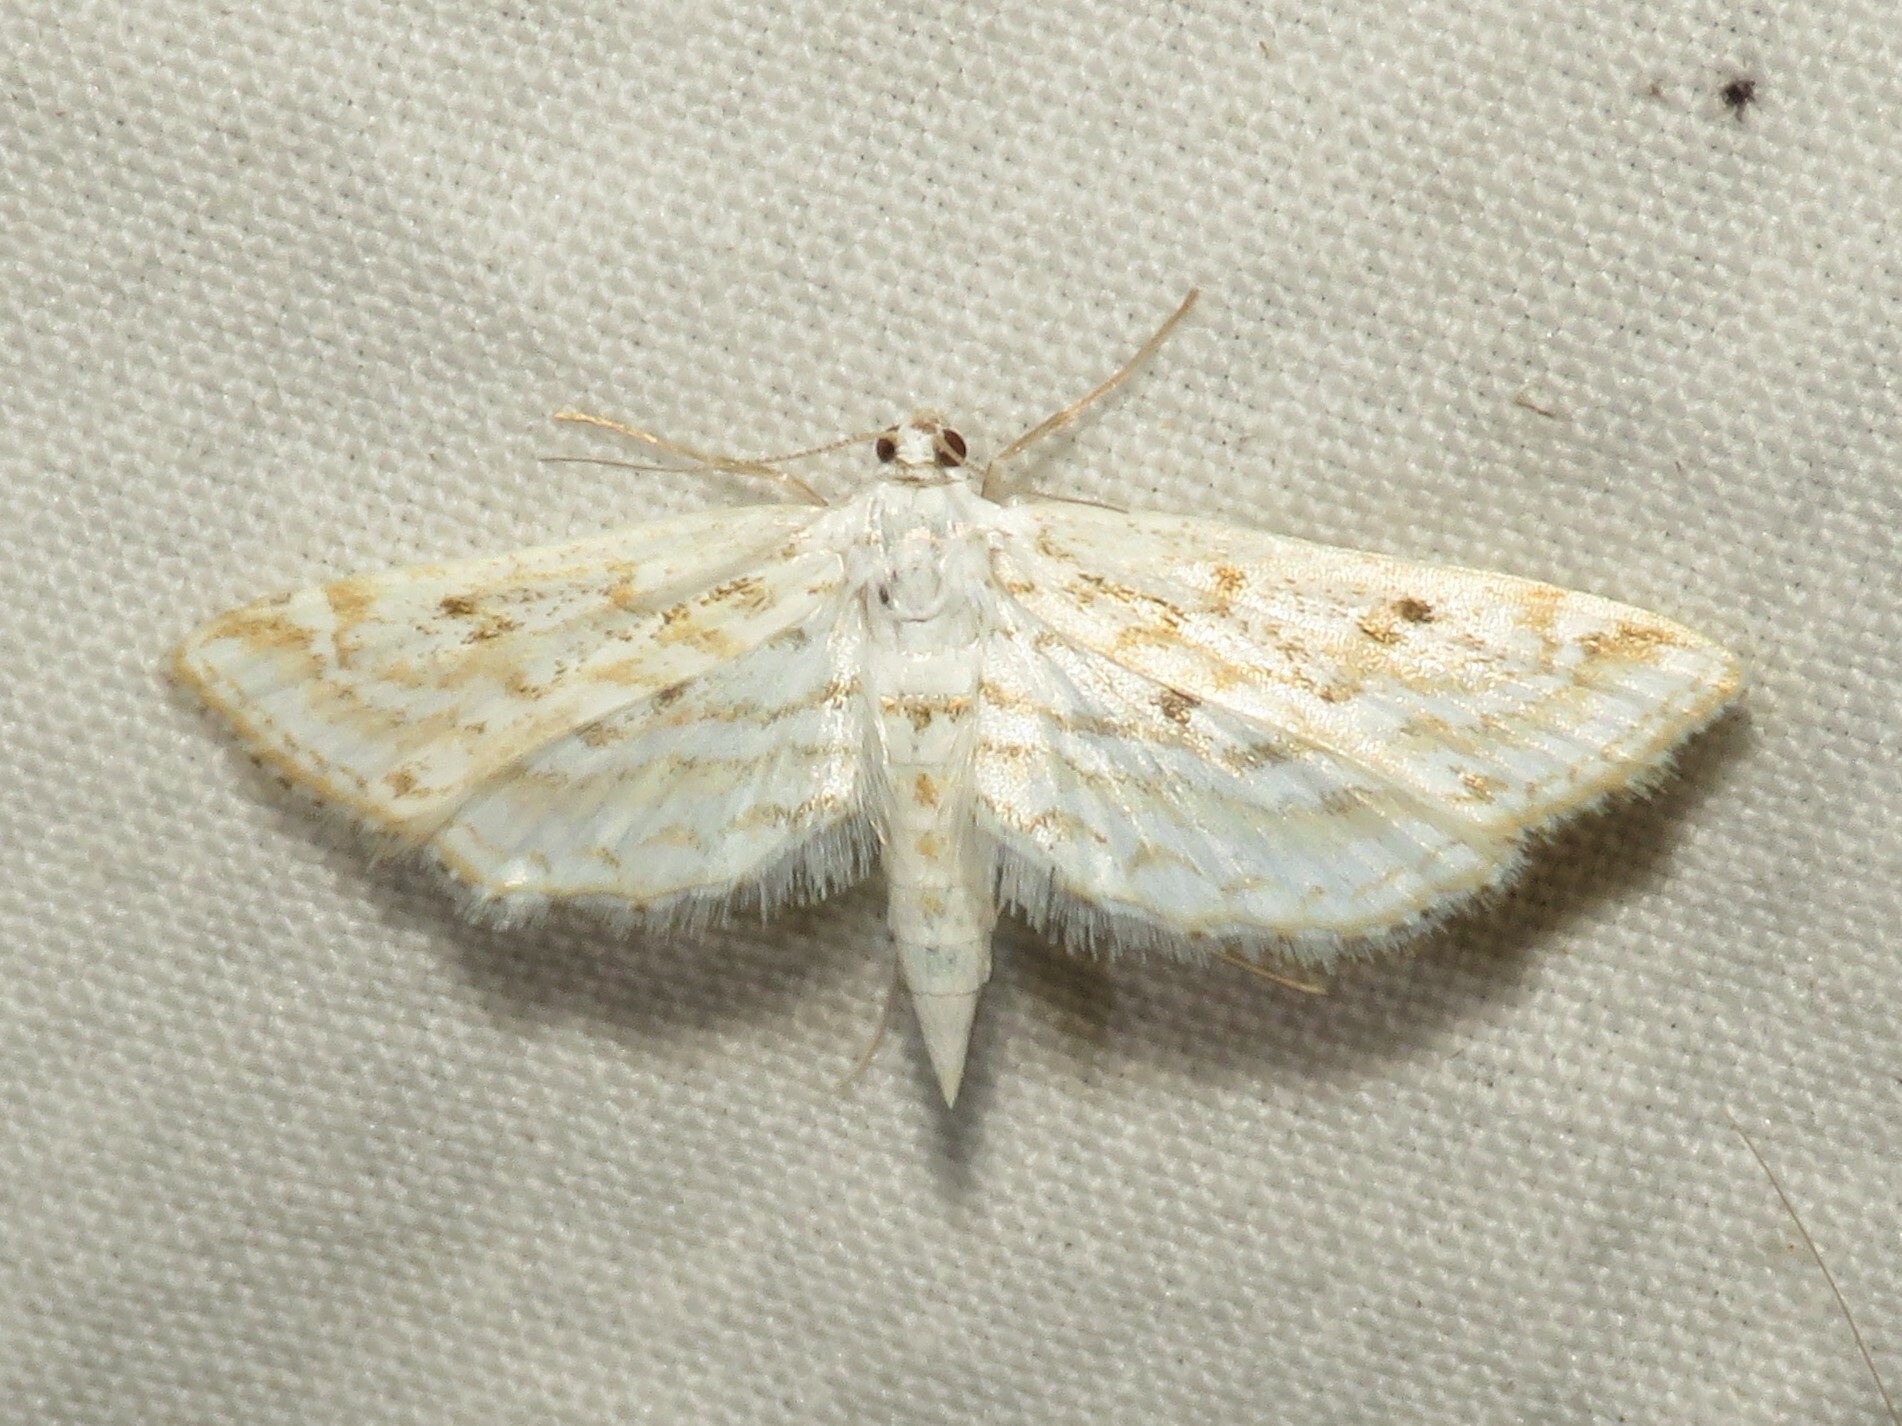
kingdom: Animalia
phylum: Arthropoda
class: Insecta
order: Lepidoptera
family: Crambidae
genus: Parapoynx
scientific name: Parapoynx allionealis
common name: Bladderwort casemaker
